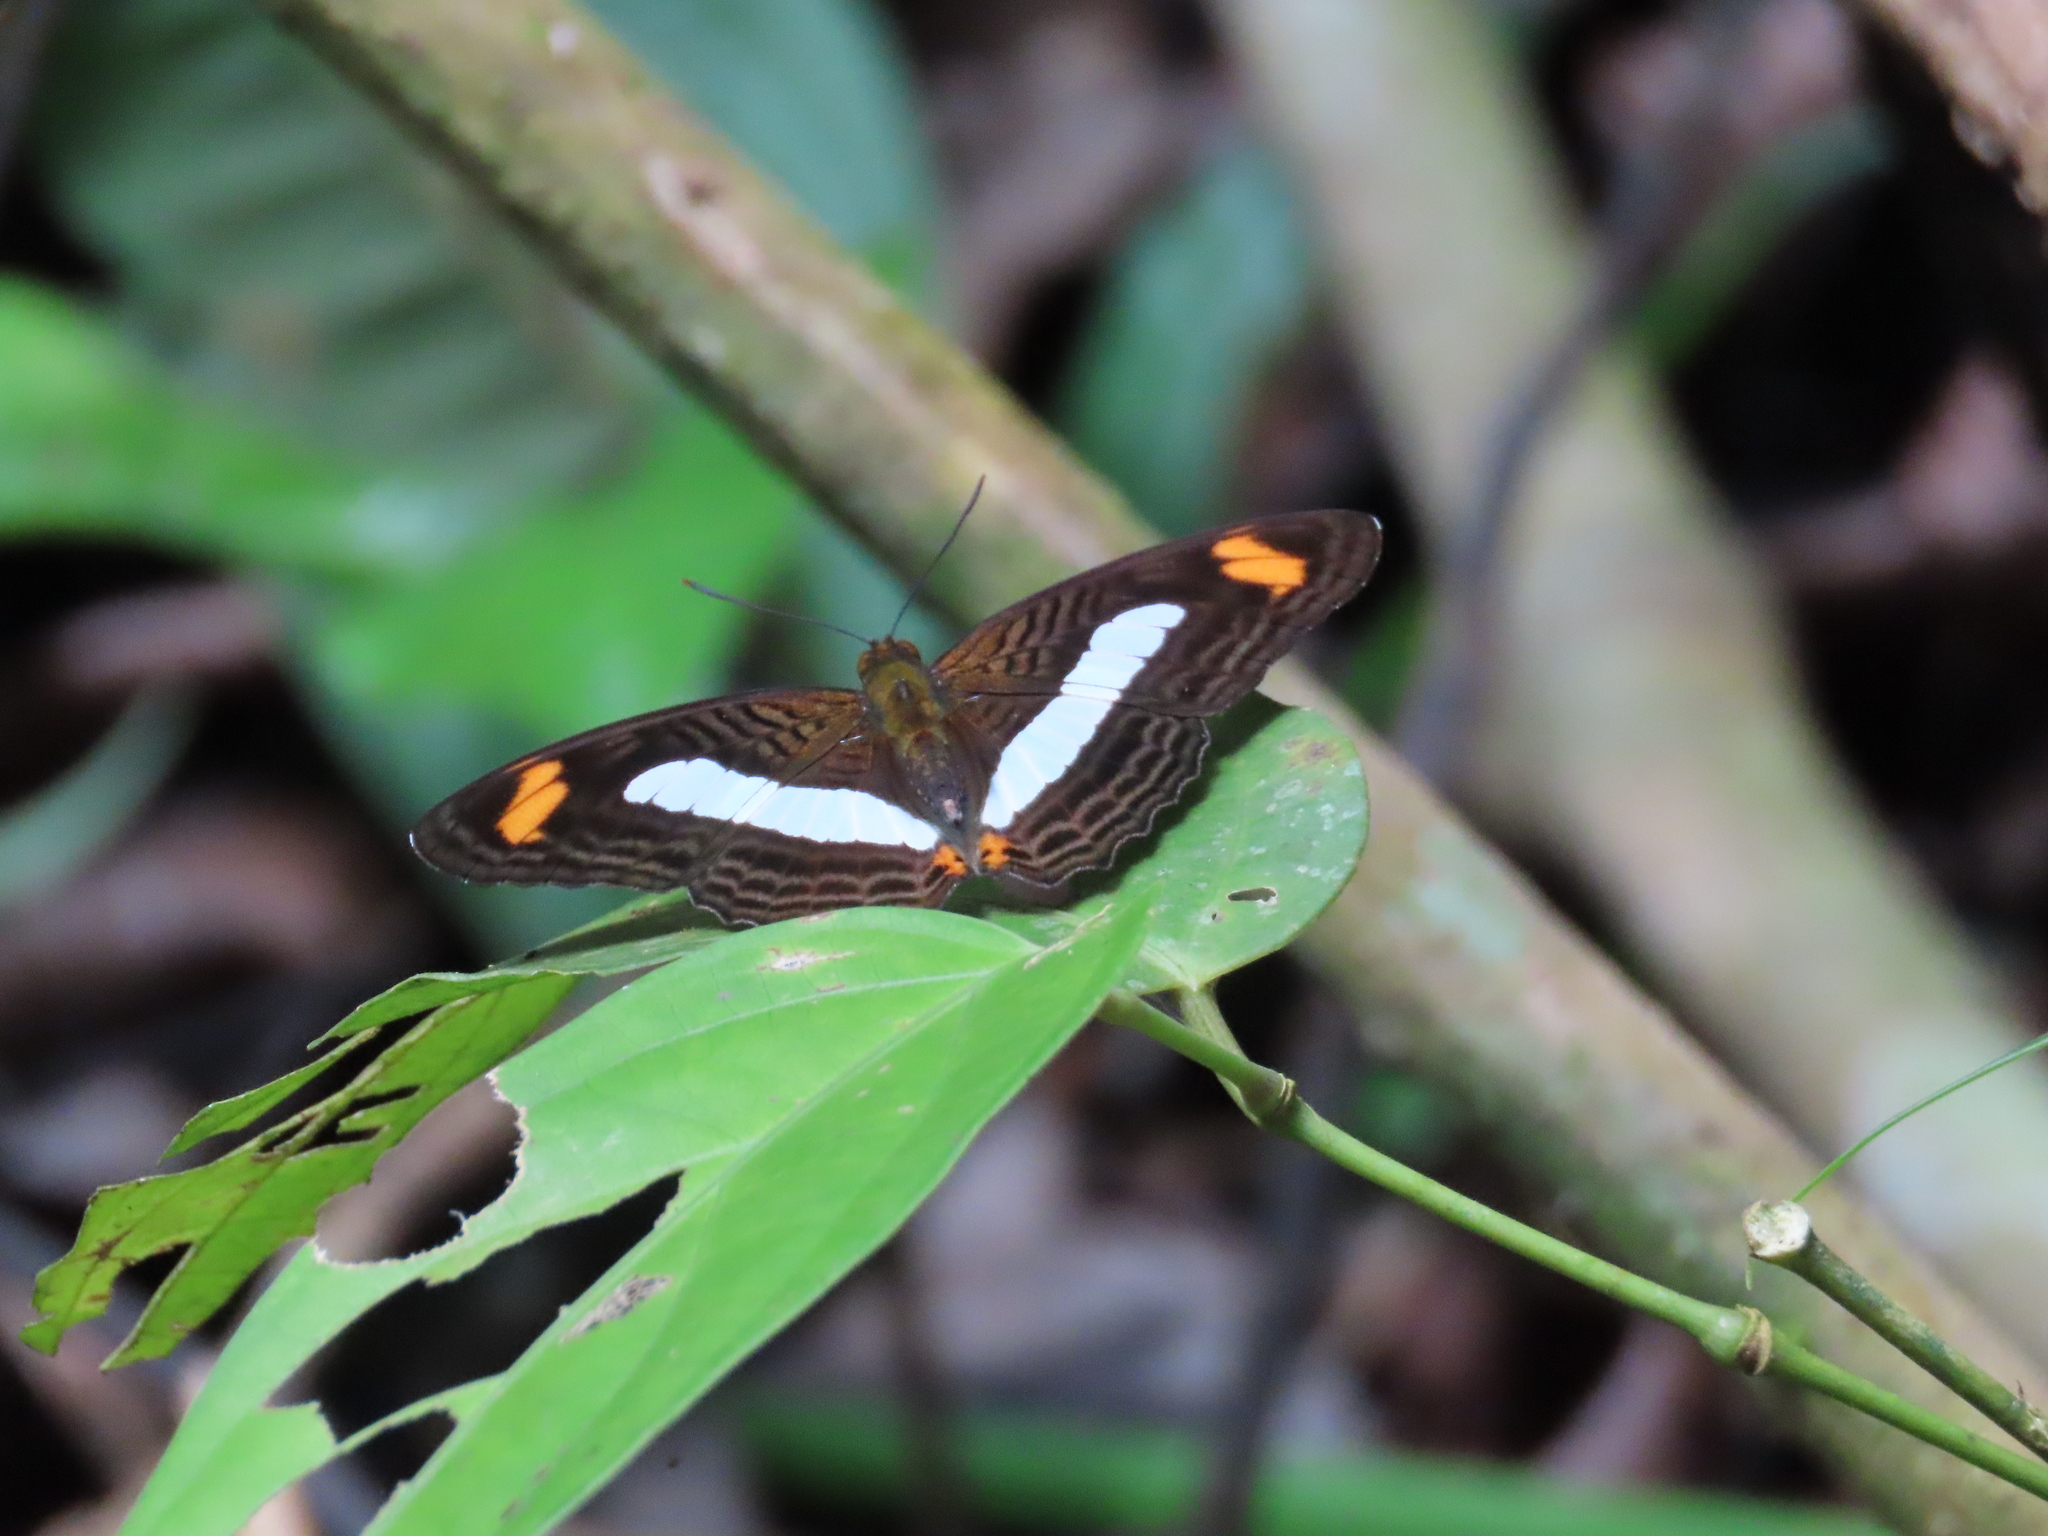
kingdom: Animalia
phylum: Arthropoda
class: Insecta
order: Lepidoptera
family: Nymphalidae
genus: Limenitis
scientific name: Limenitis Adelpha iphiclus
